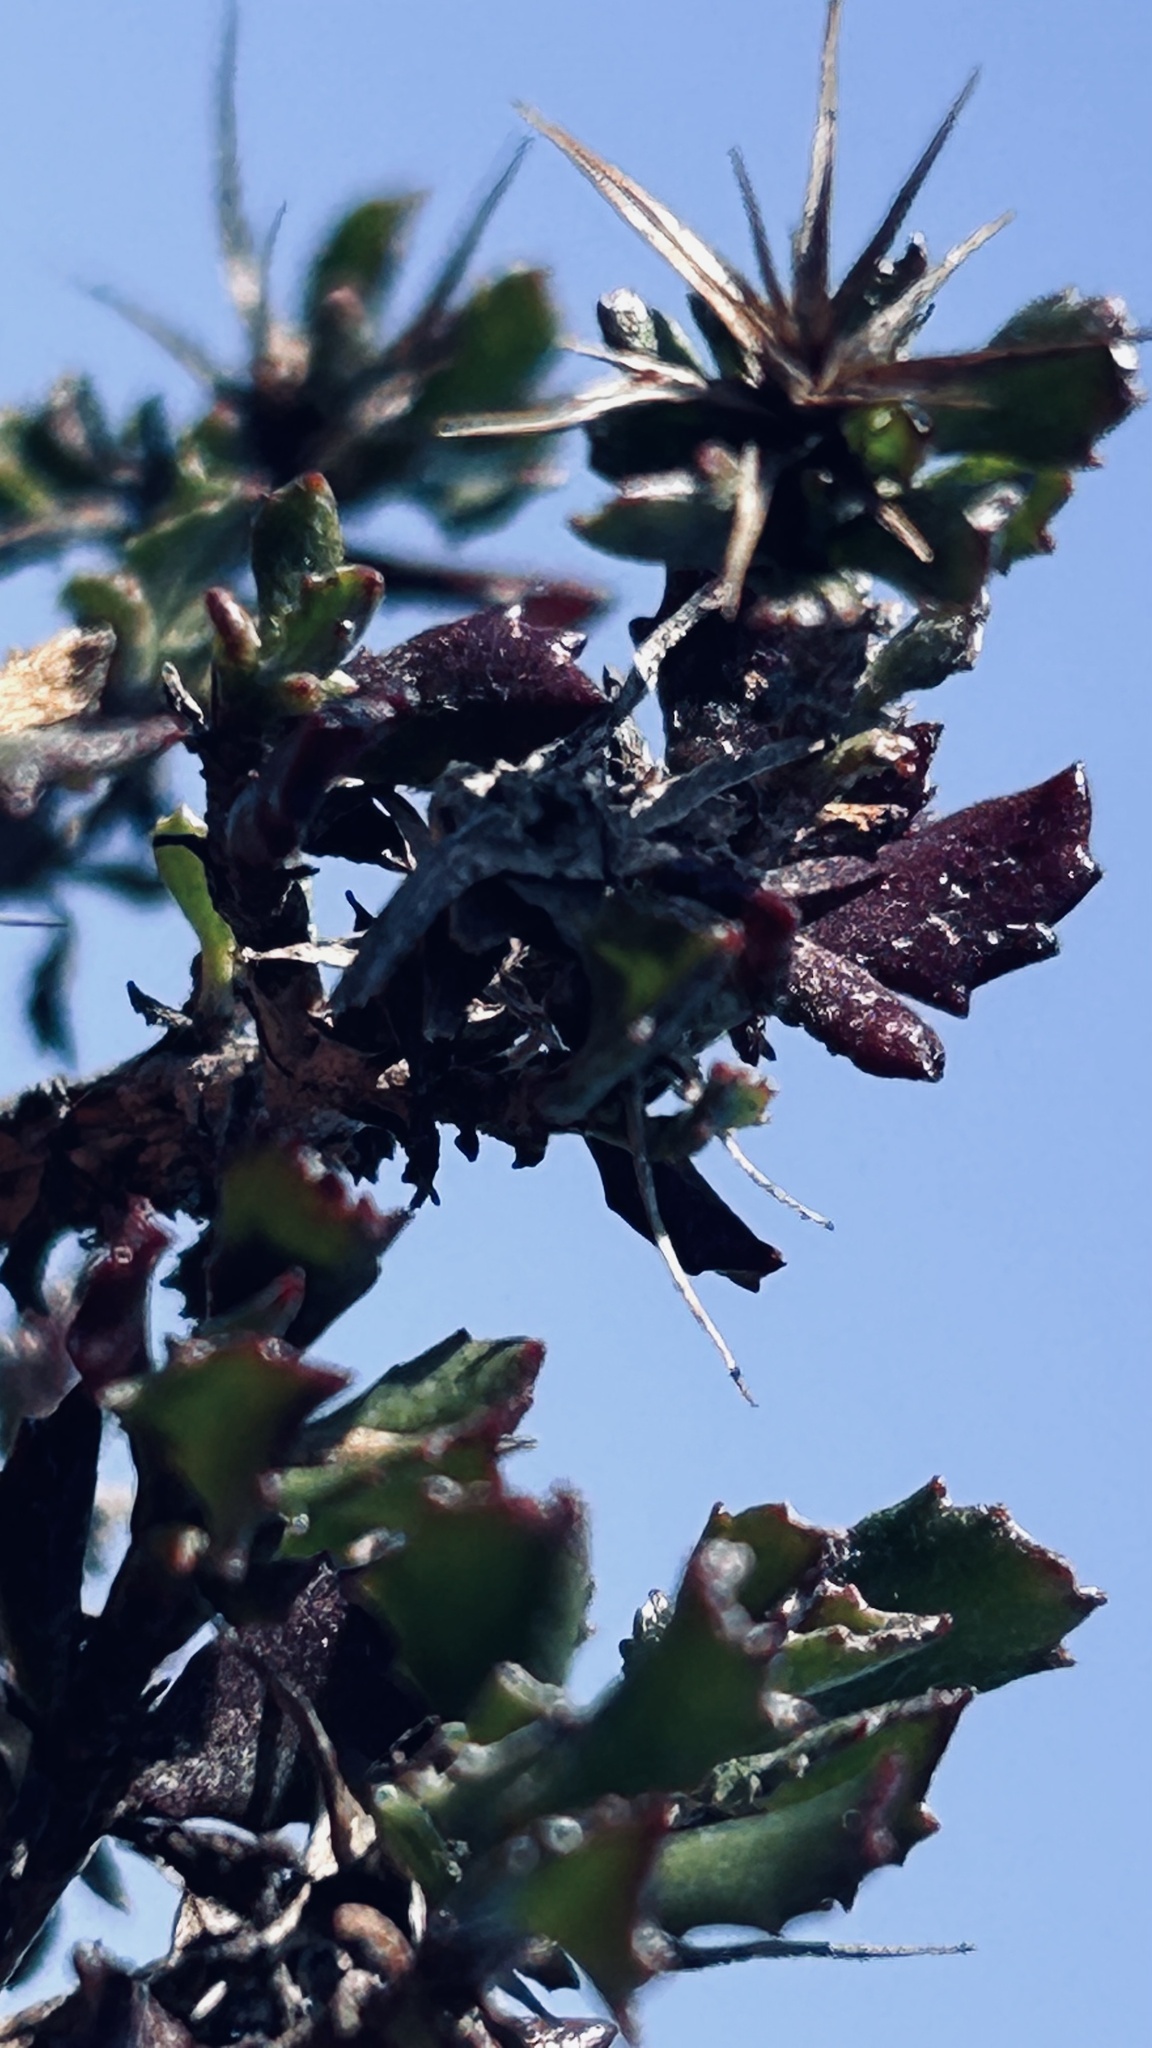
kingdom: Plantae
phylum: Tracheophyta
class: Magnoliopsida
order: Asterales
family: Asteraceae
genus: Macledium
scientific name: Macledium spinosum
